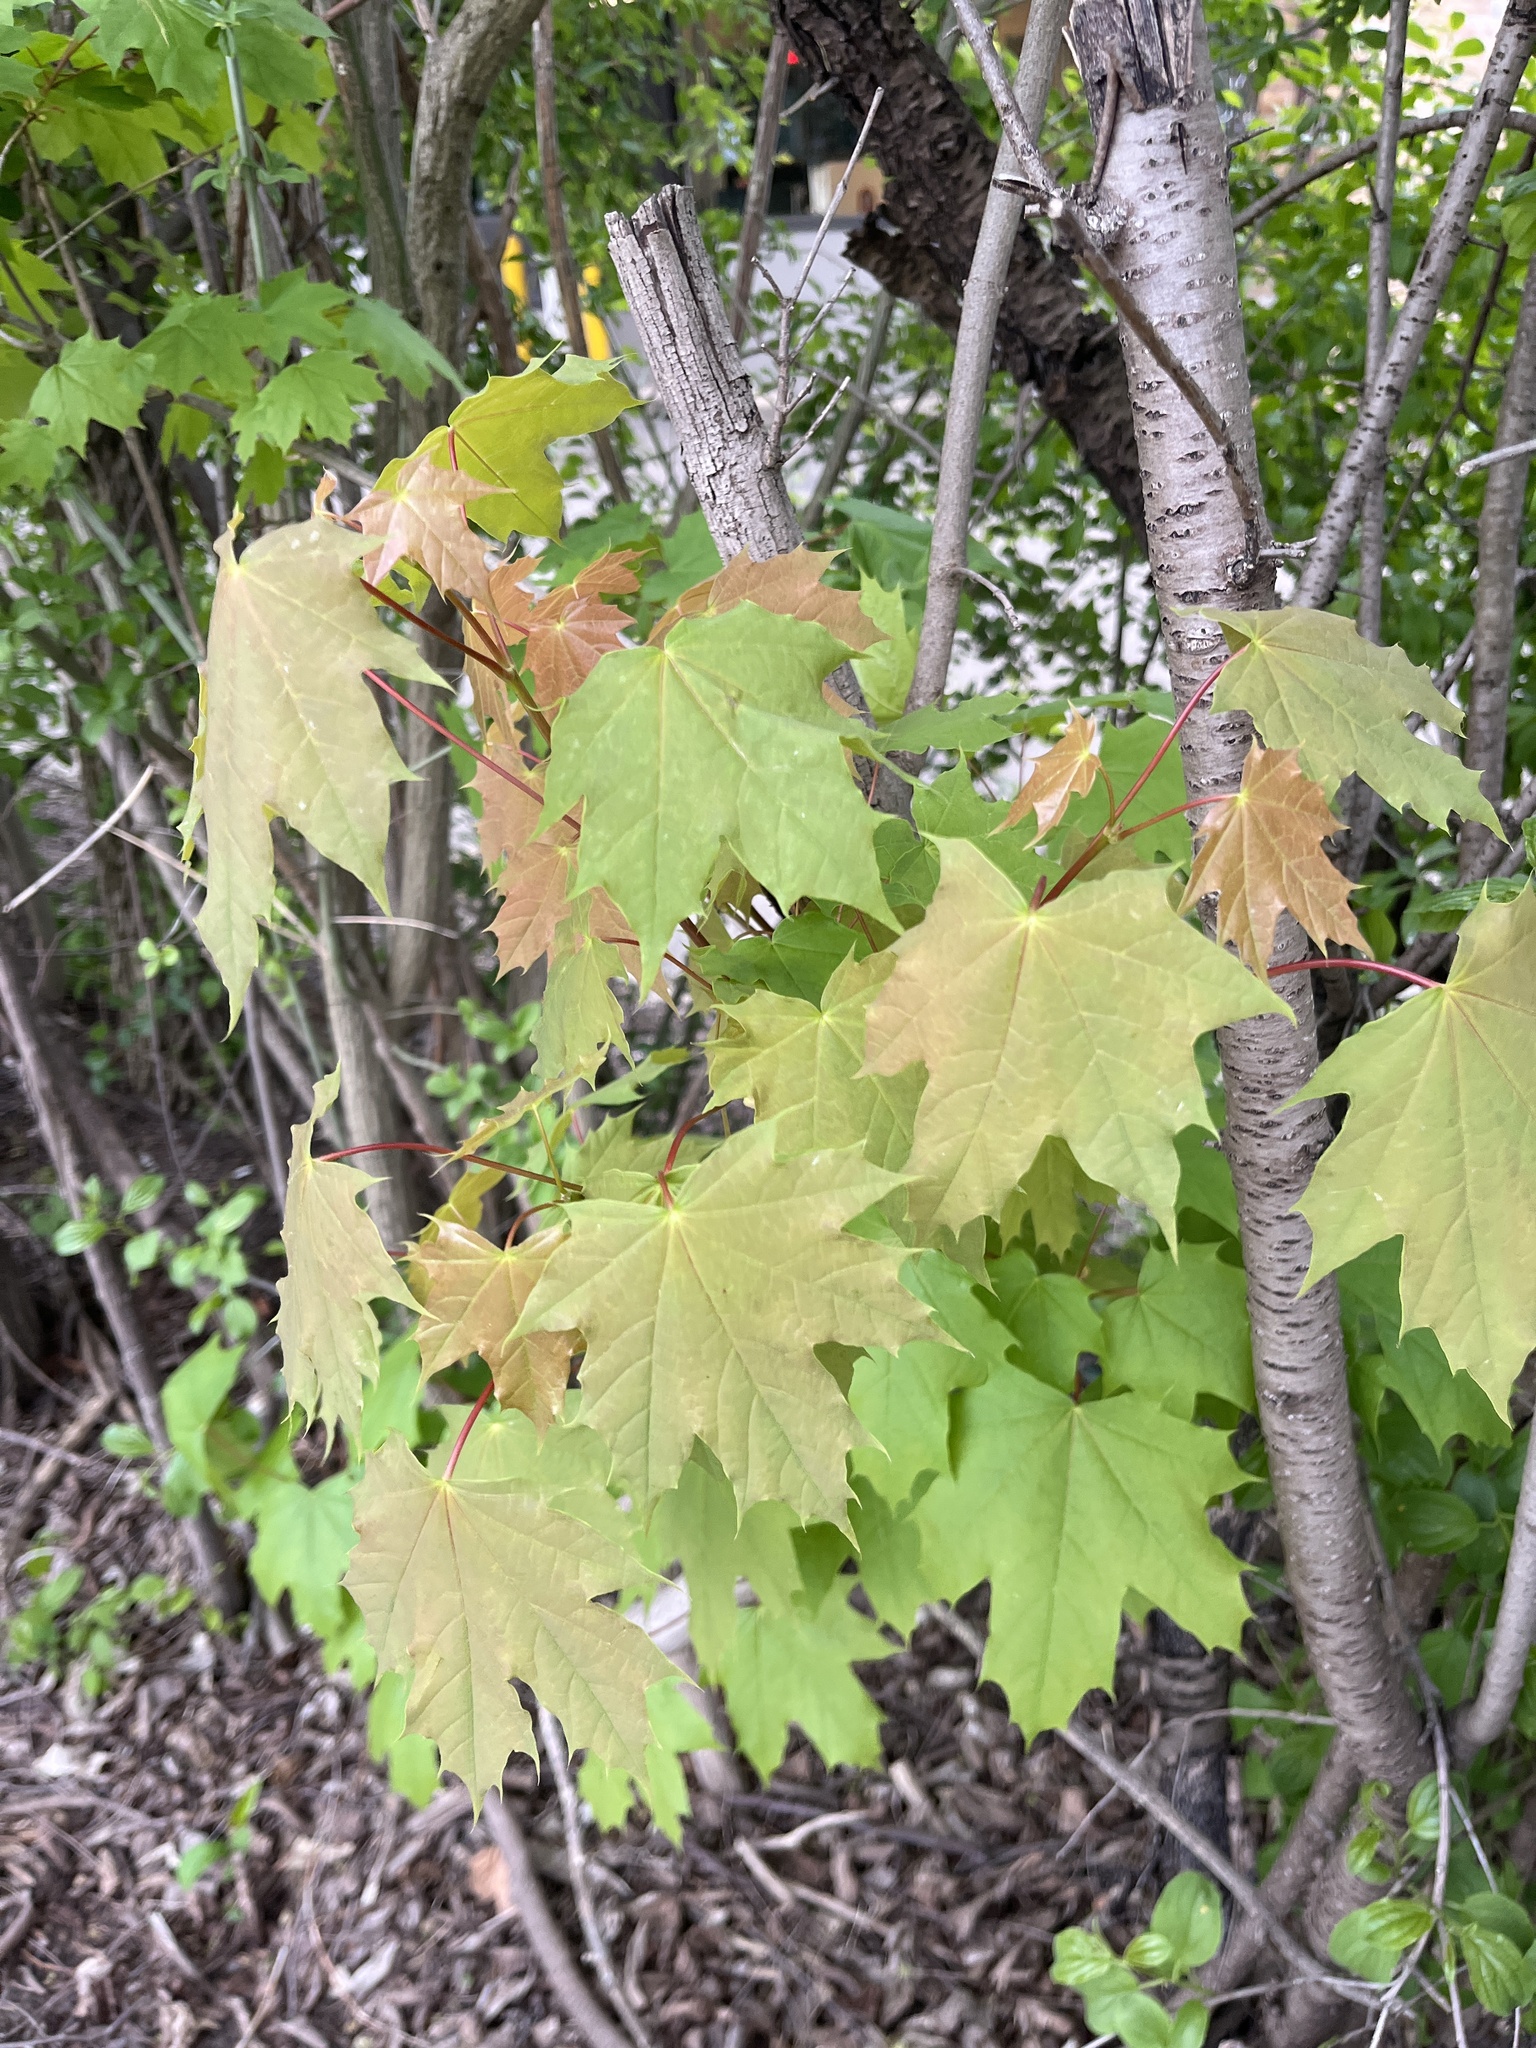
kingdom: Plantae
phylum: Tracheophyta
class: Magnoliopsida
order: Sapindales
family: Sapindaceae
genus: Acer
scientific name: Acer platanoides
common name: Norway maple
